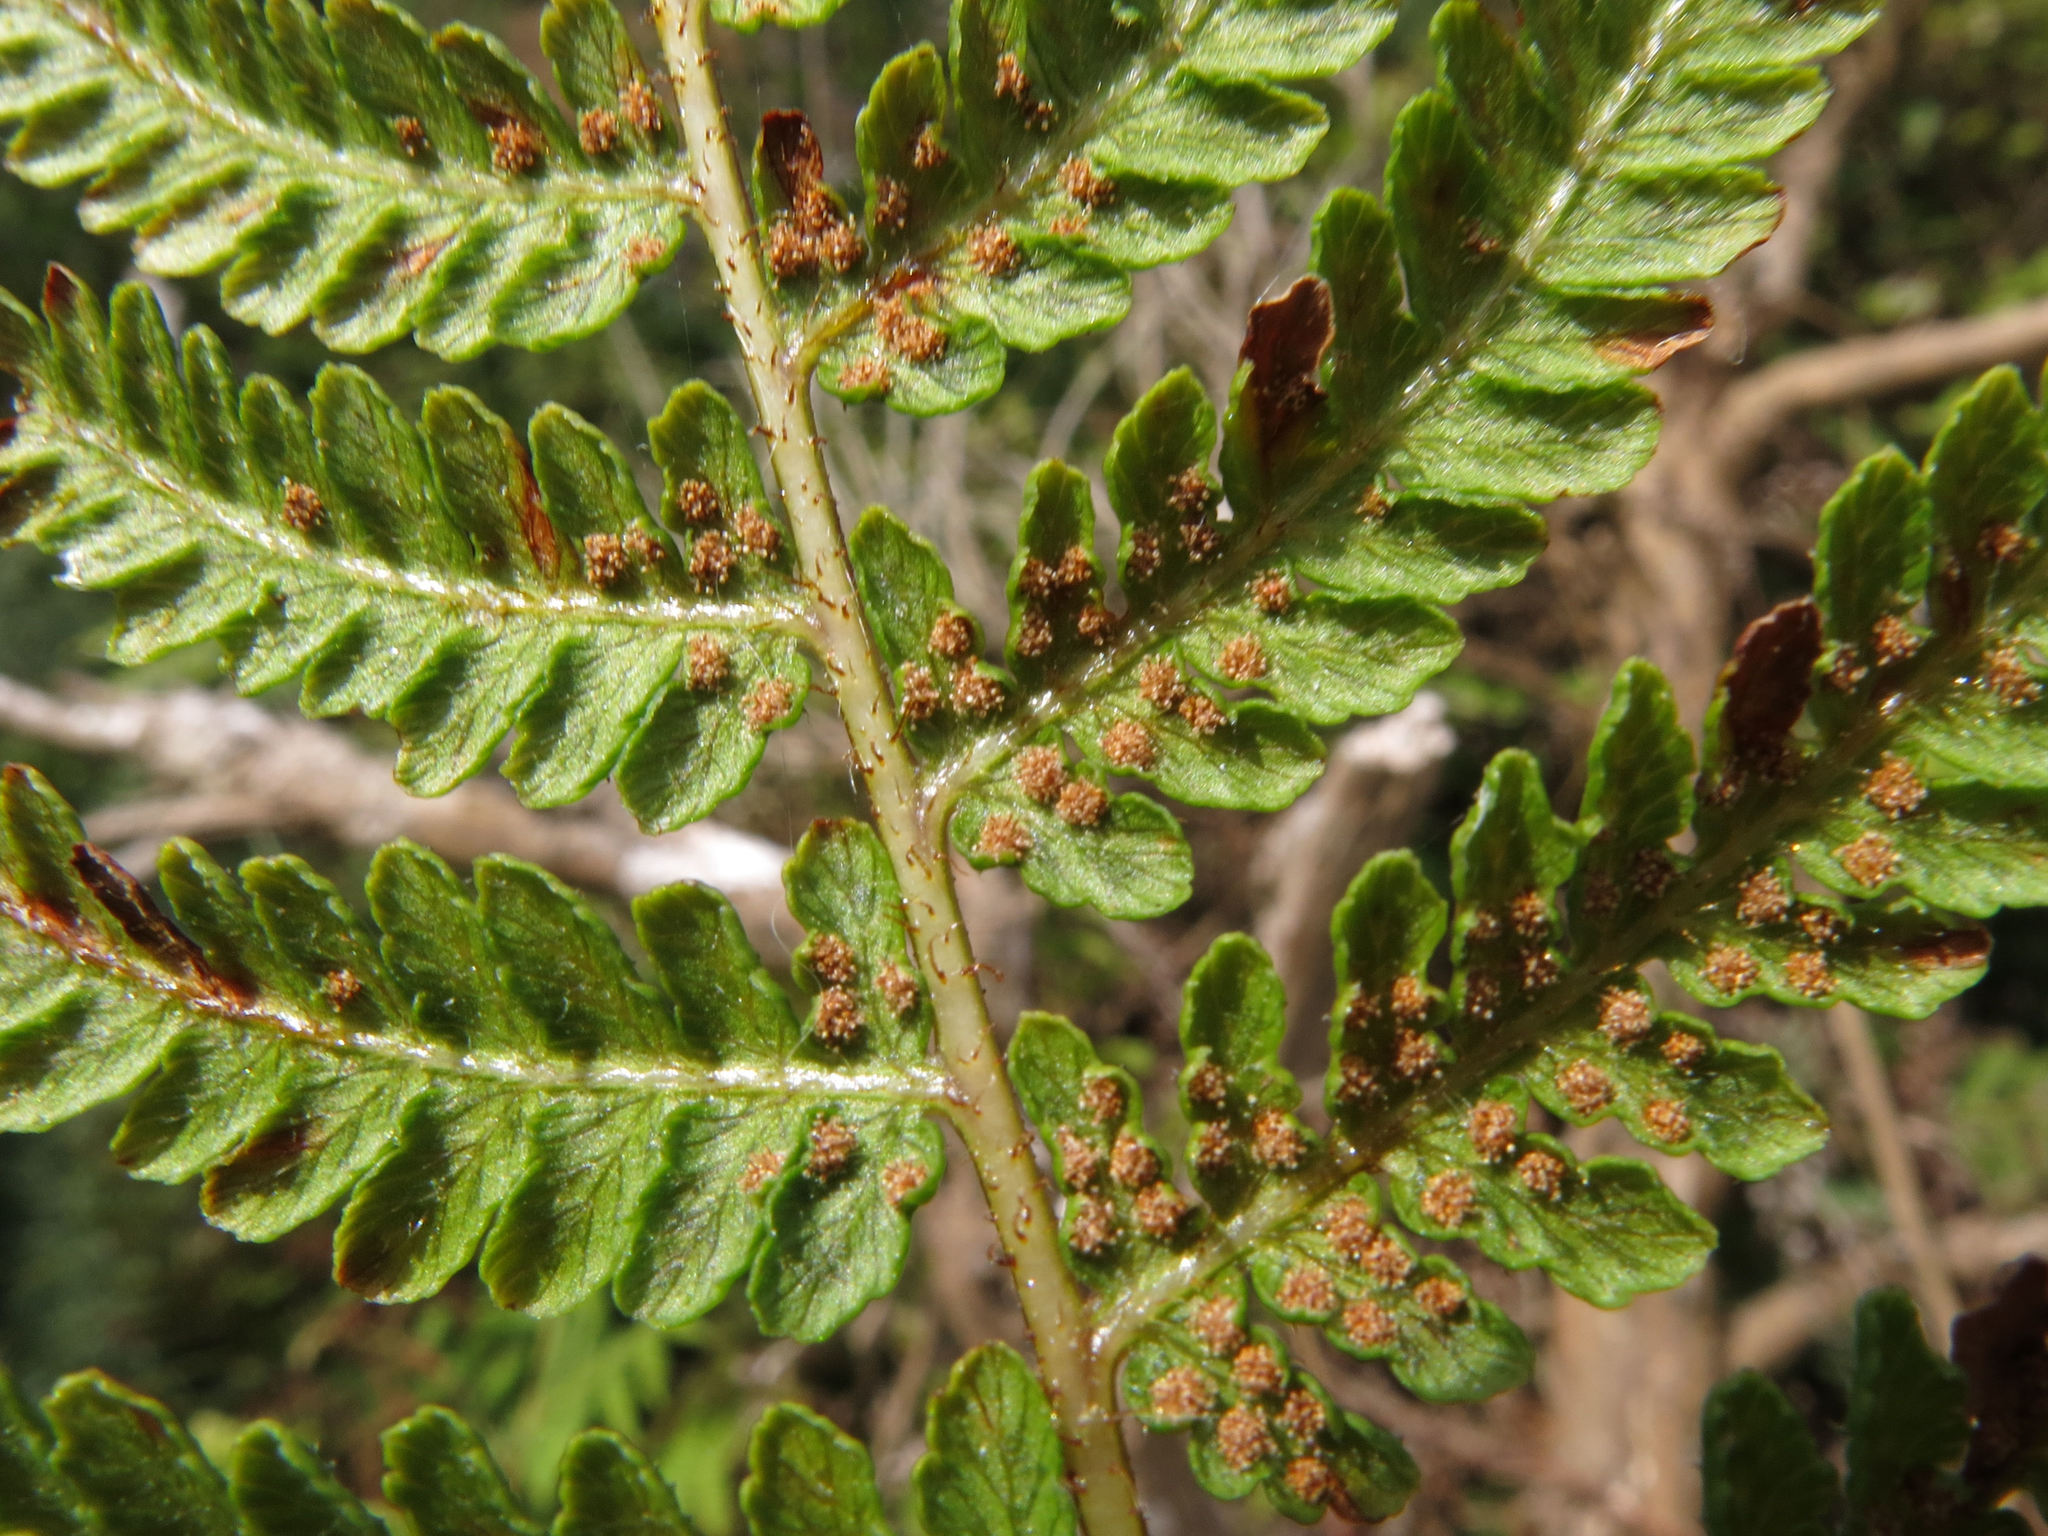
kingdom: Plantae
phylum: Tracheophyta
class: Polypodiopsida
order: Polypodiales
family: Dennstaedtiaceae
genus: Hypolepis
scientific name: Hypolepis ambigua
